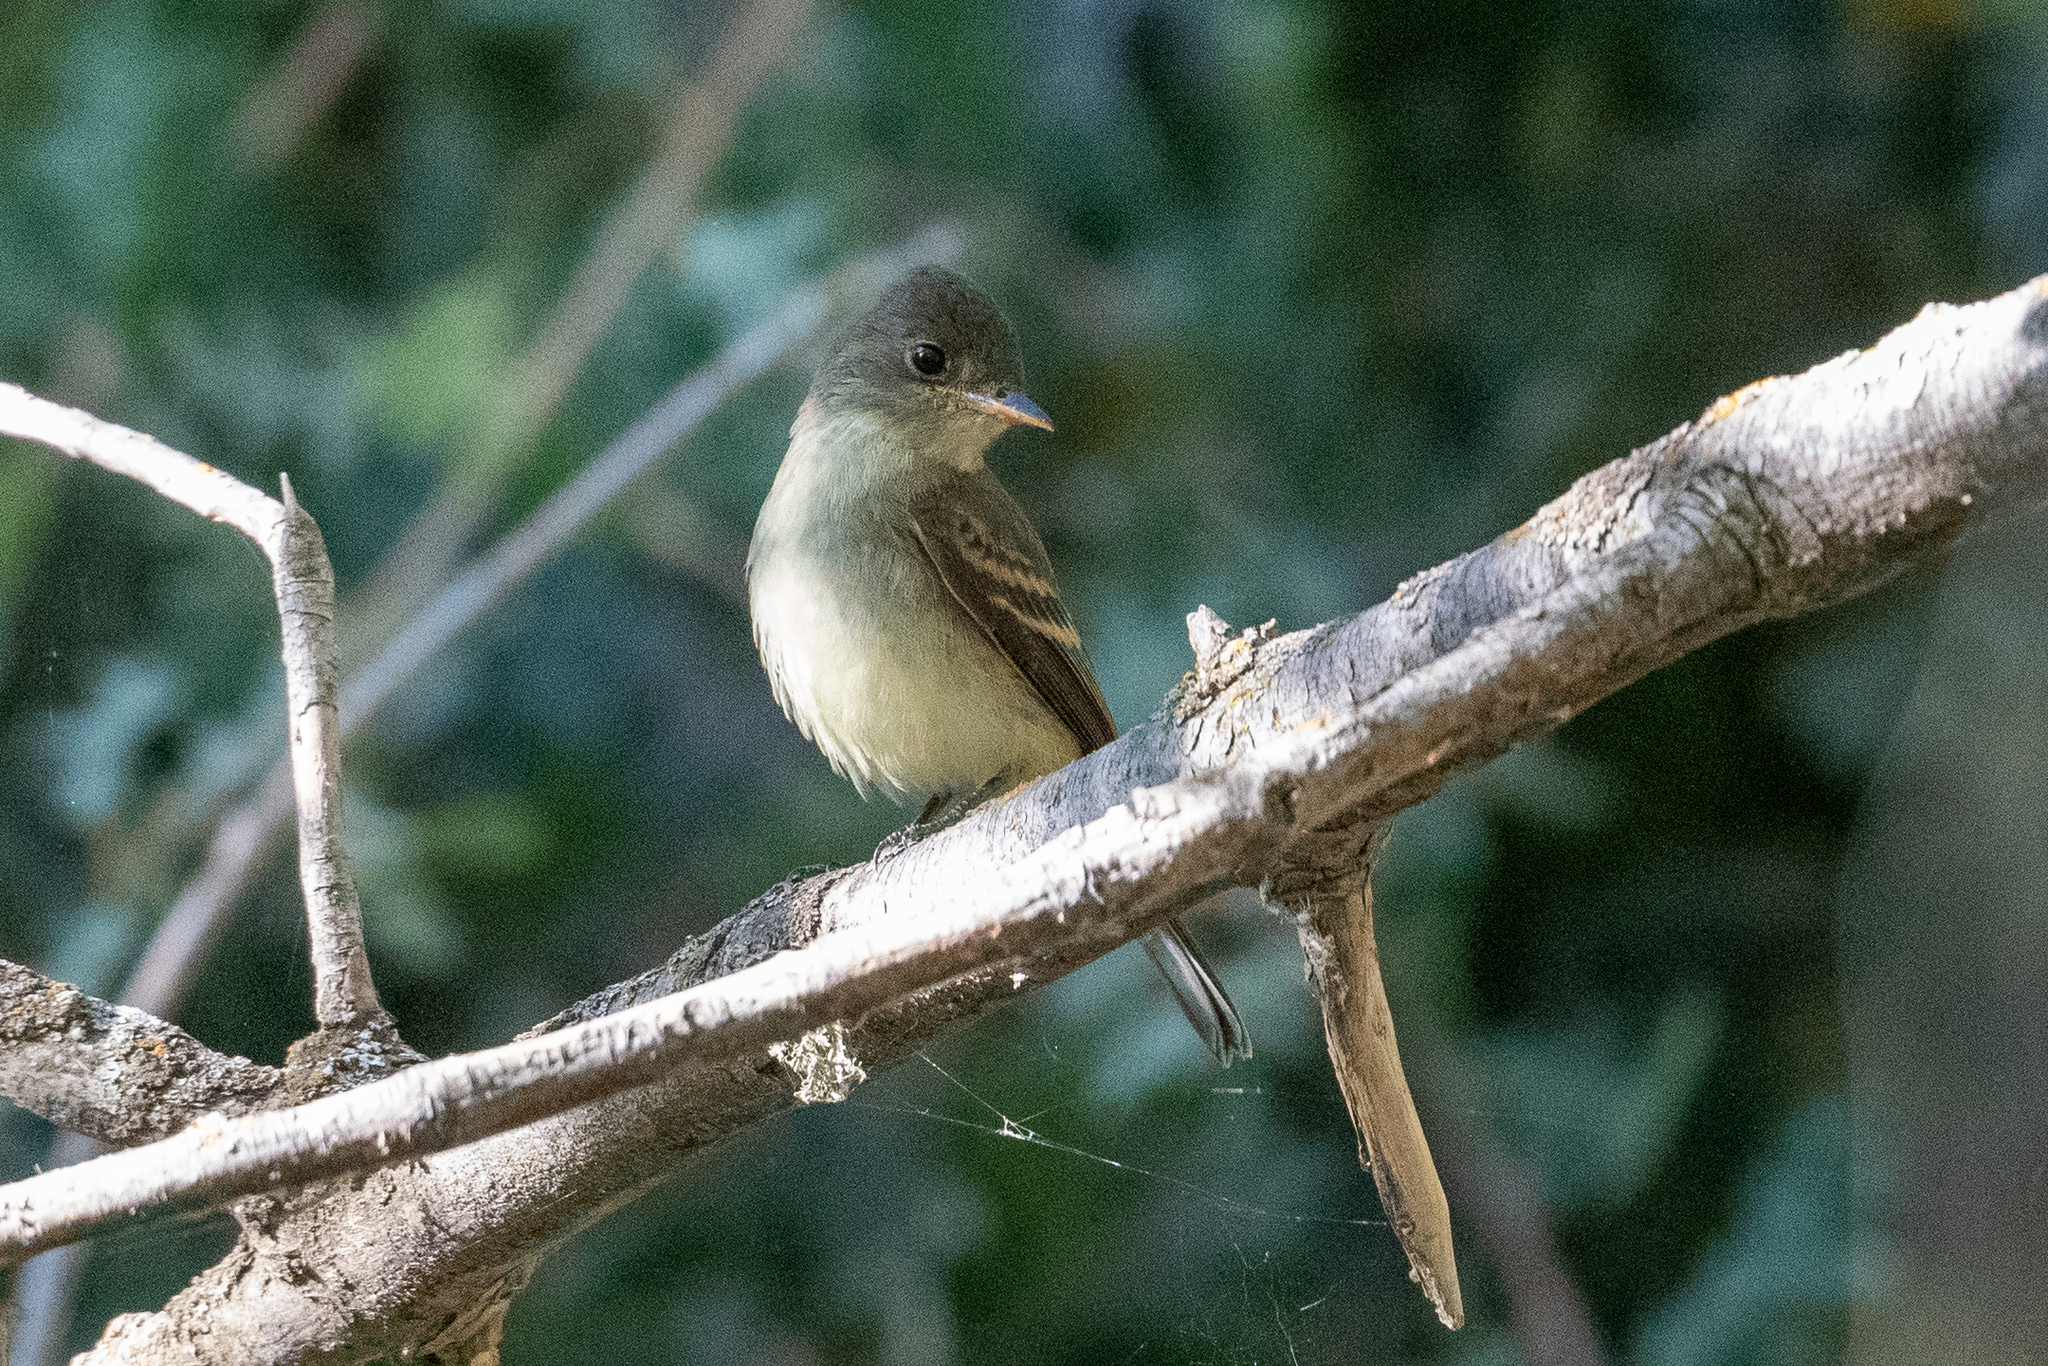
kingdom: Animalia
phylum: Chordata
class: Aves
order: Passeriformes
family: Tyrannidae
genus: Empidonax
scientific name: Empidonax traillii
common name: Willow flycatcher
